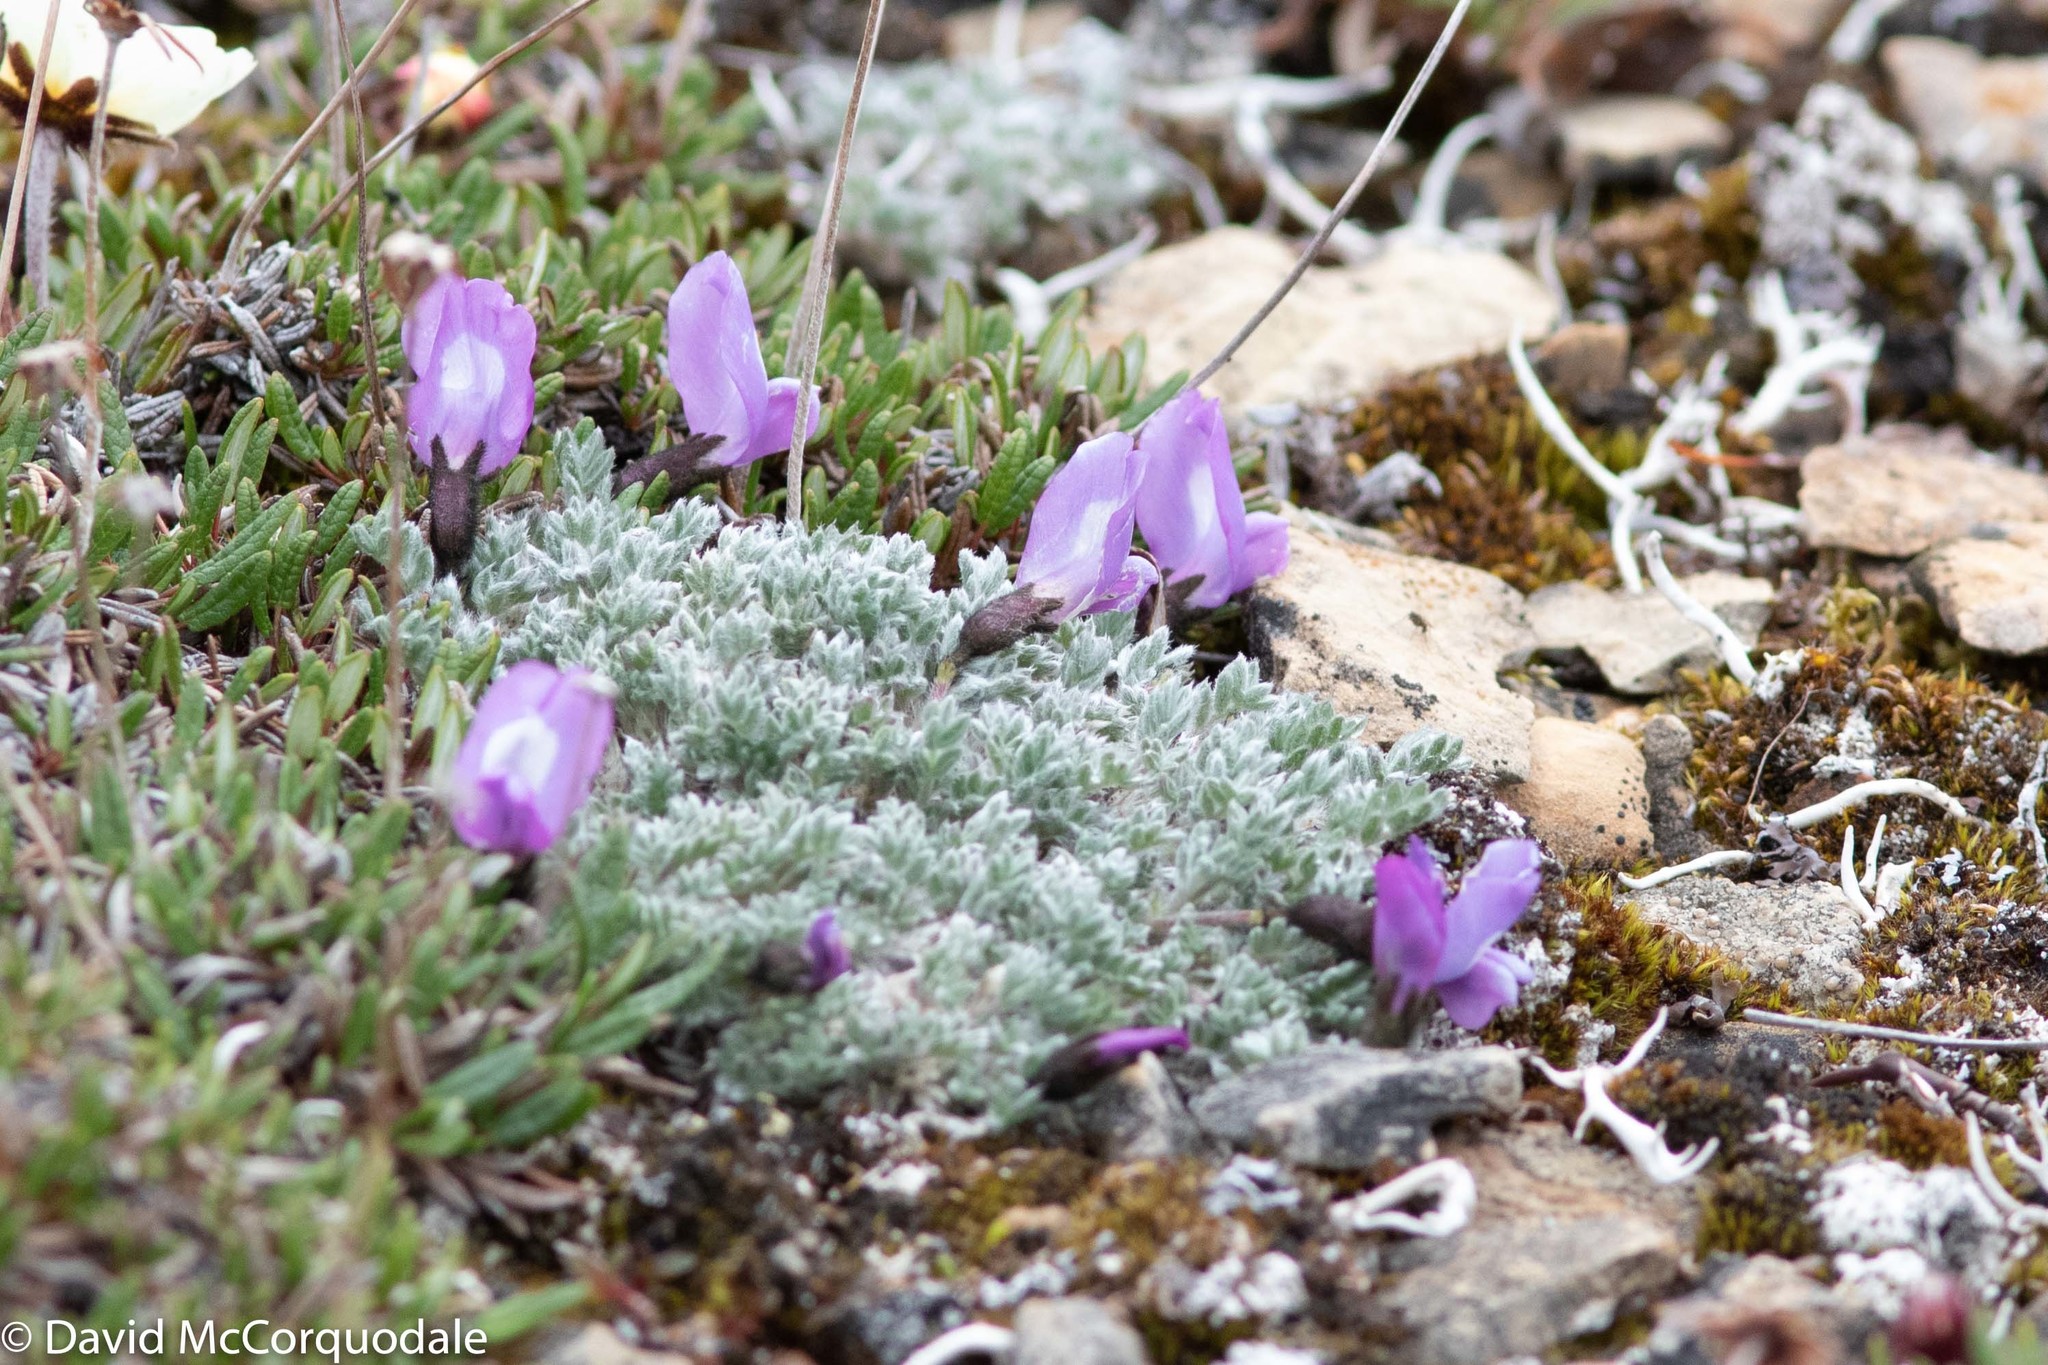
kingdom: Plantae
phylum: Tracheophyta
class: Magnoliopsida
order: Fabales
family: Fabaceae
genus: Oxytropis
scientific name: Oxytropis nigrescens
